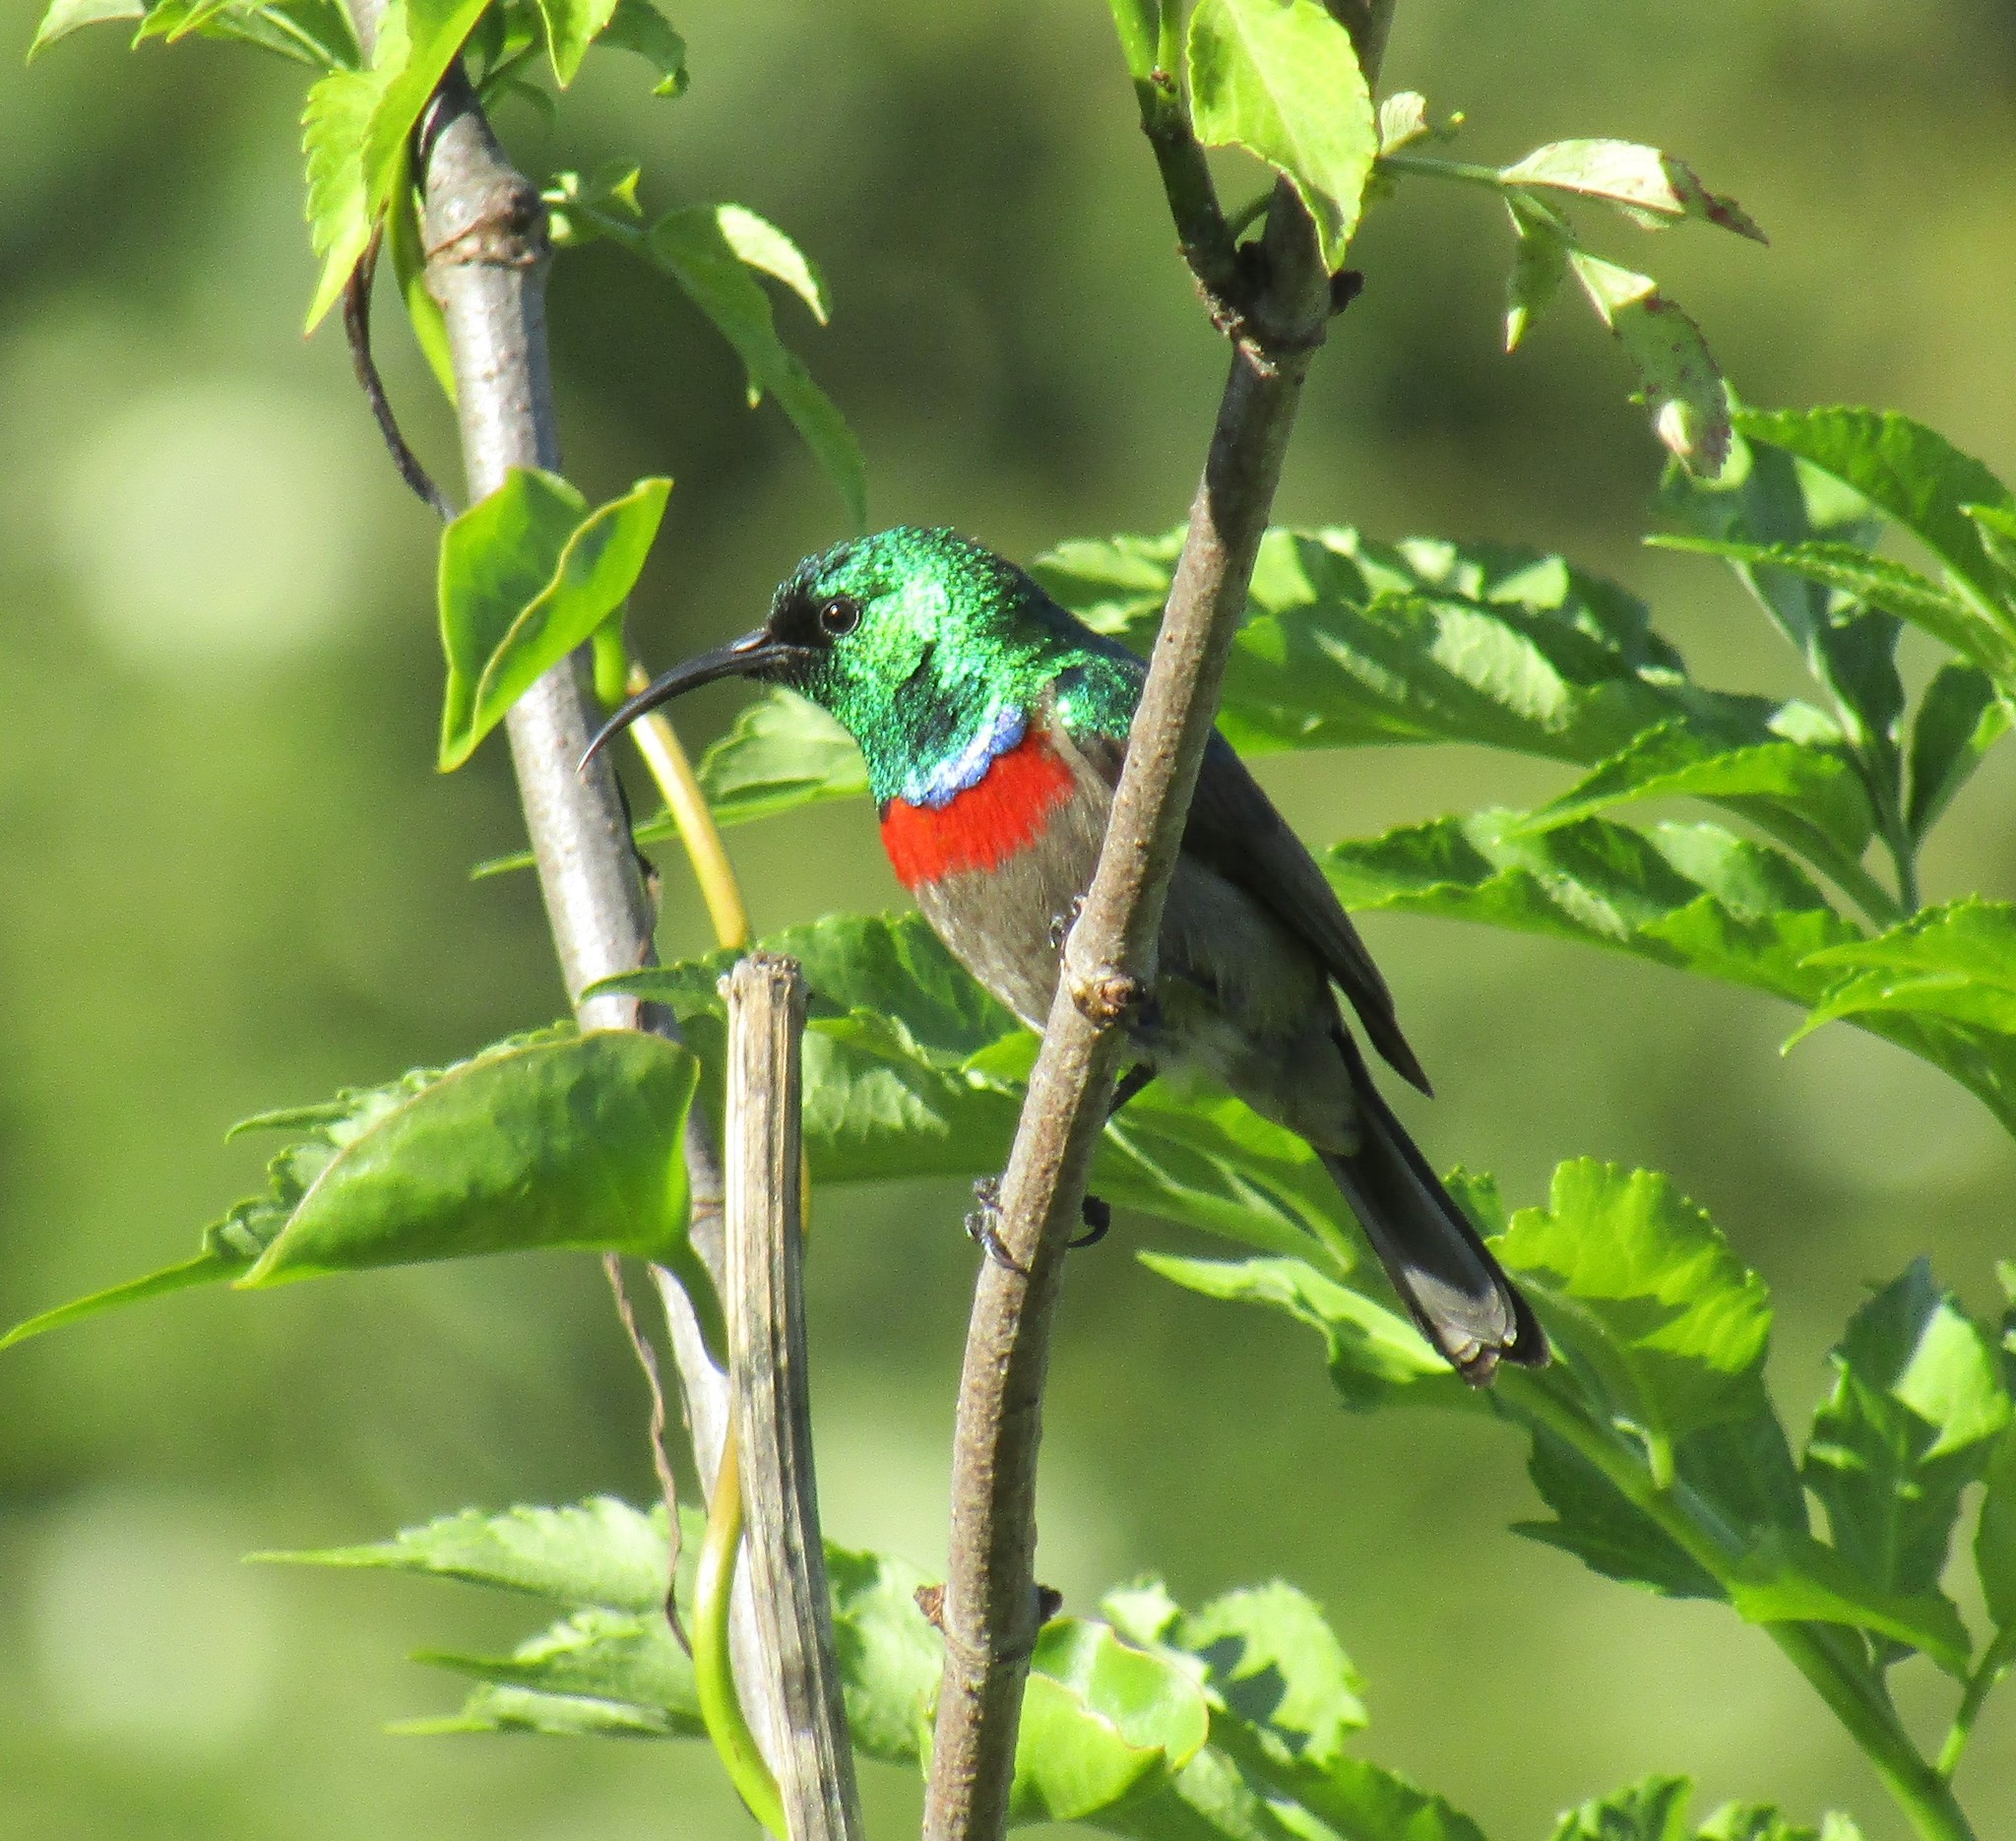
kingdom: Animalia
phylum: Chordata
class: Aves
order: Passeriformes
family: Nectariniidae
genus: Cinnyris
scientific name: Cinnyris chalybeus
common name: Southern double-collared sunbird
